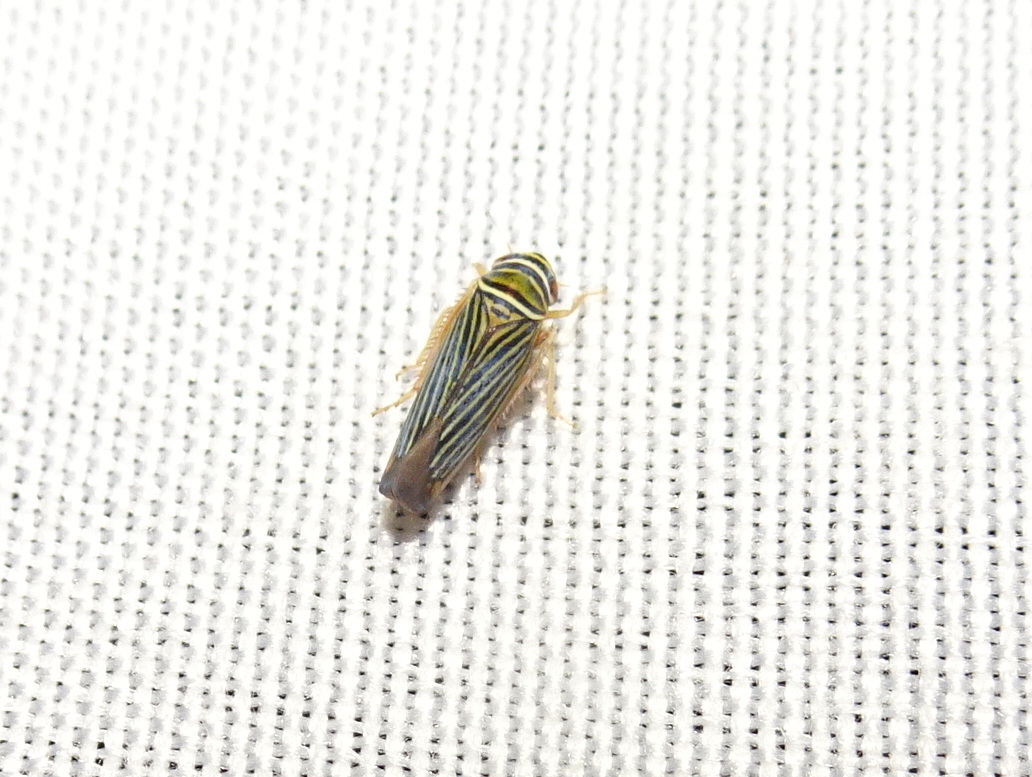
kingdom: Animalia
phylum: Arthropoda
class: Insecta
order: Hemiptera
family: Cicadellidae
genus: Tylozygus
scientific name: Tylozygus bifidus
